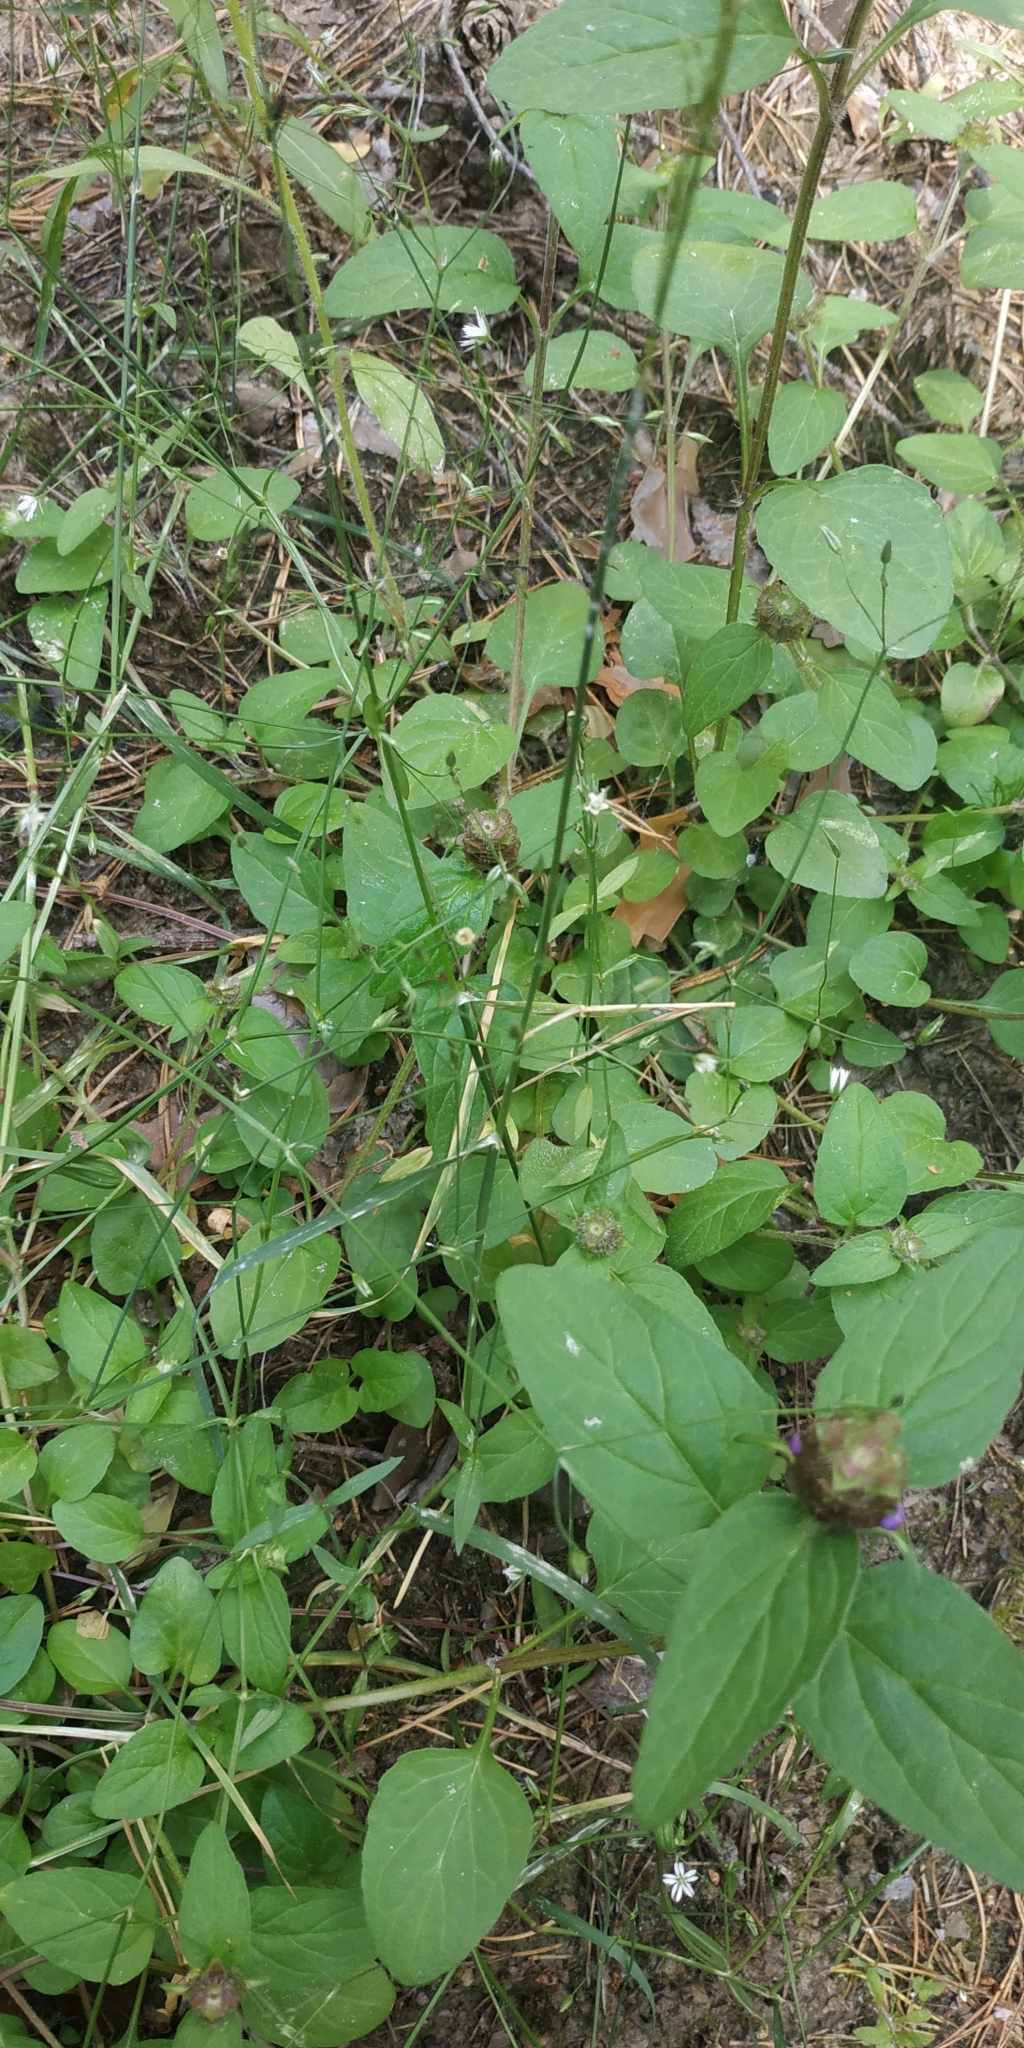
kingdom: Plantae
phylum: Tracheophyta
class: Magnoliopsida
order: Caryophyllales
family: Caryophyllaceae
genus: Stellaria
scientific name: Stellaria graminea
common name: Grass-like starwort
